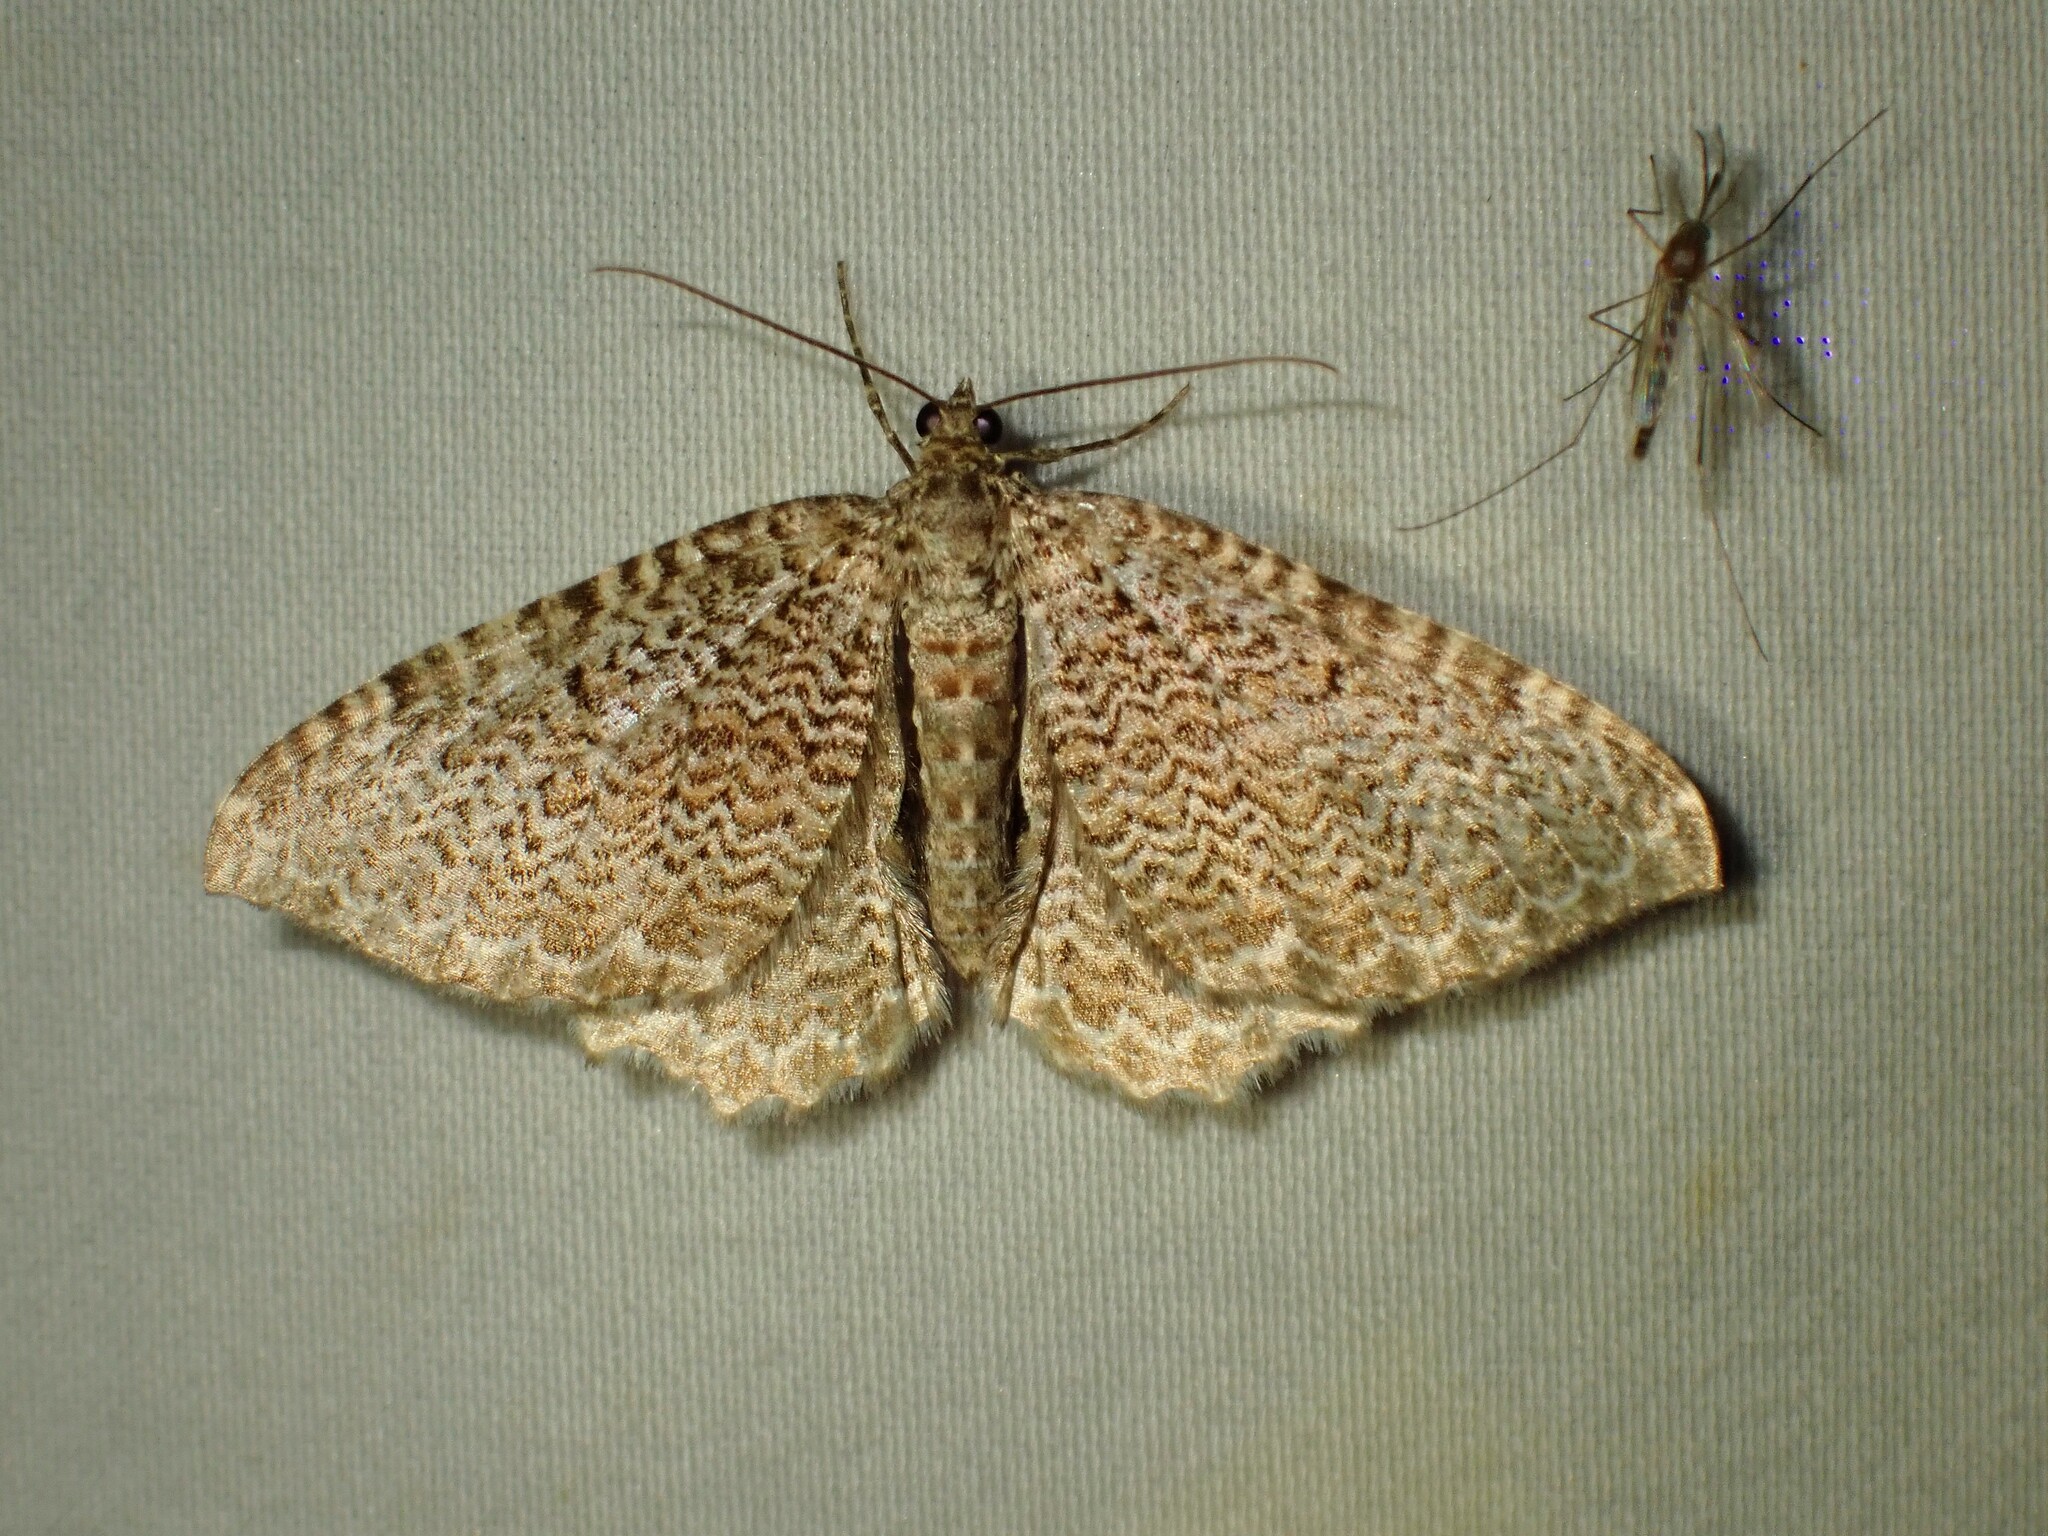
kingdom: Animalia
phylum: Arthropoda
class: Insecta
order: Lepidoptera
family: Geometridae
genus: Rheumaptera
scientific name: Rheumaptera
